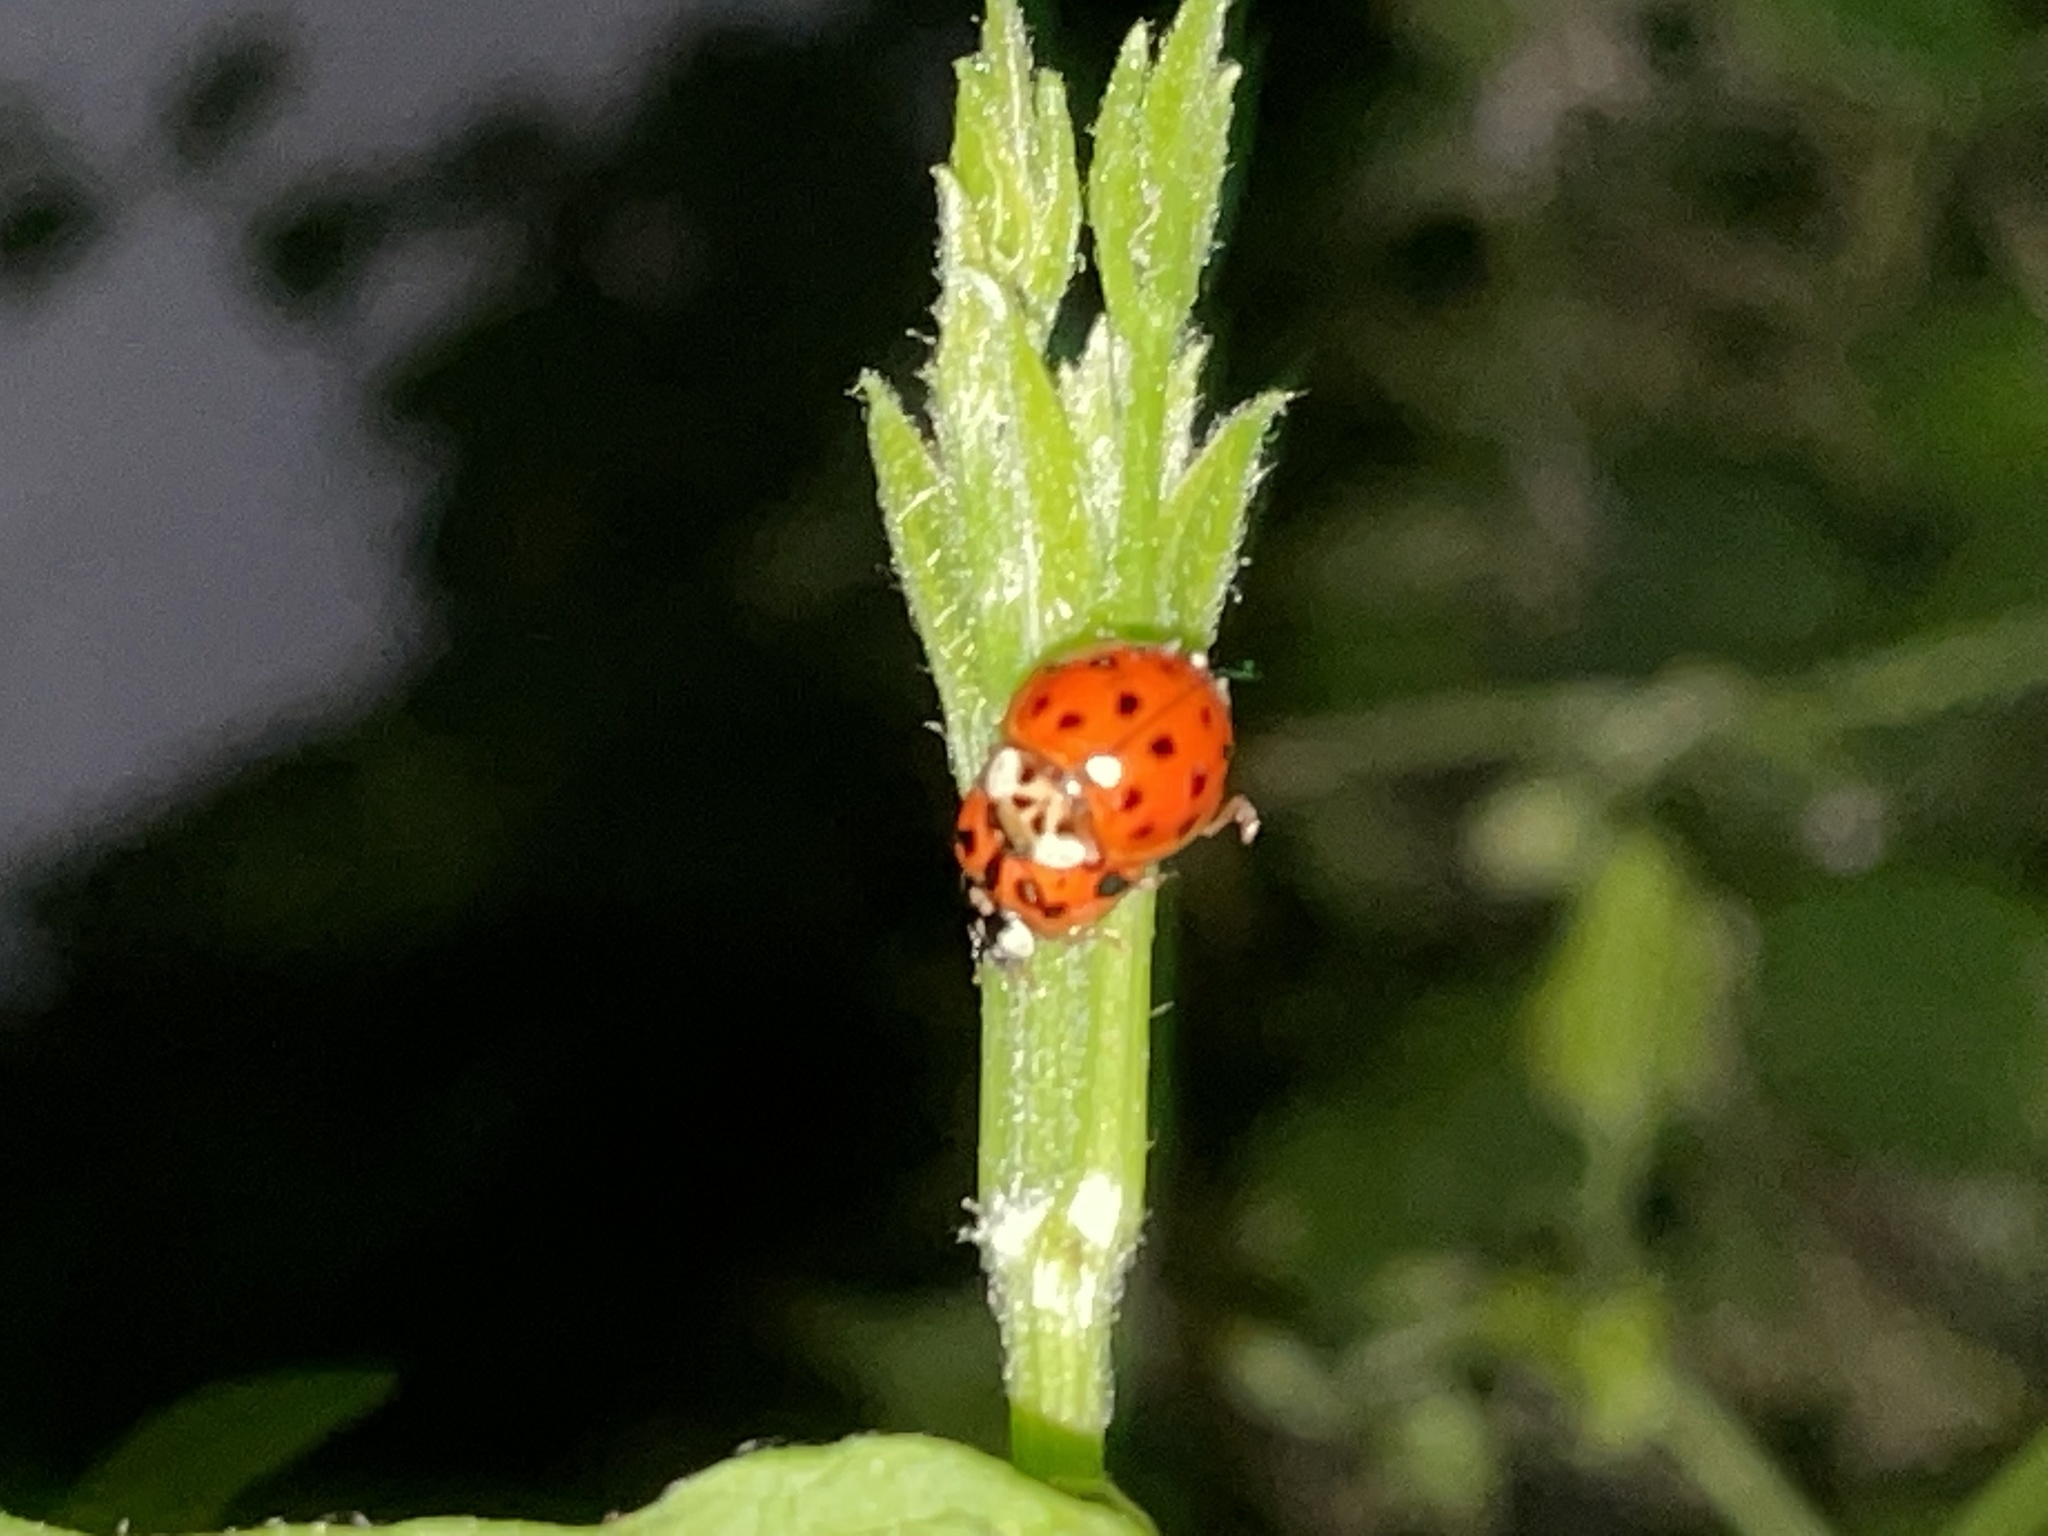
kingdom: Animalia
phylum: Arthropoda
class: Insecta
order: Coleoptera
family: Coccinellidae
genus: Harmonia
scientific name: Harmonia axyridis
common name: Harlequin ladybird
